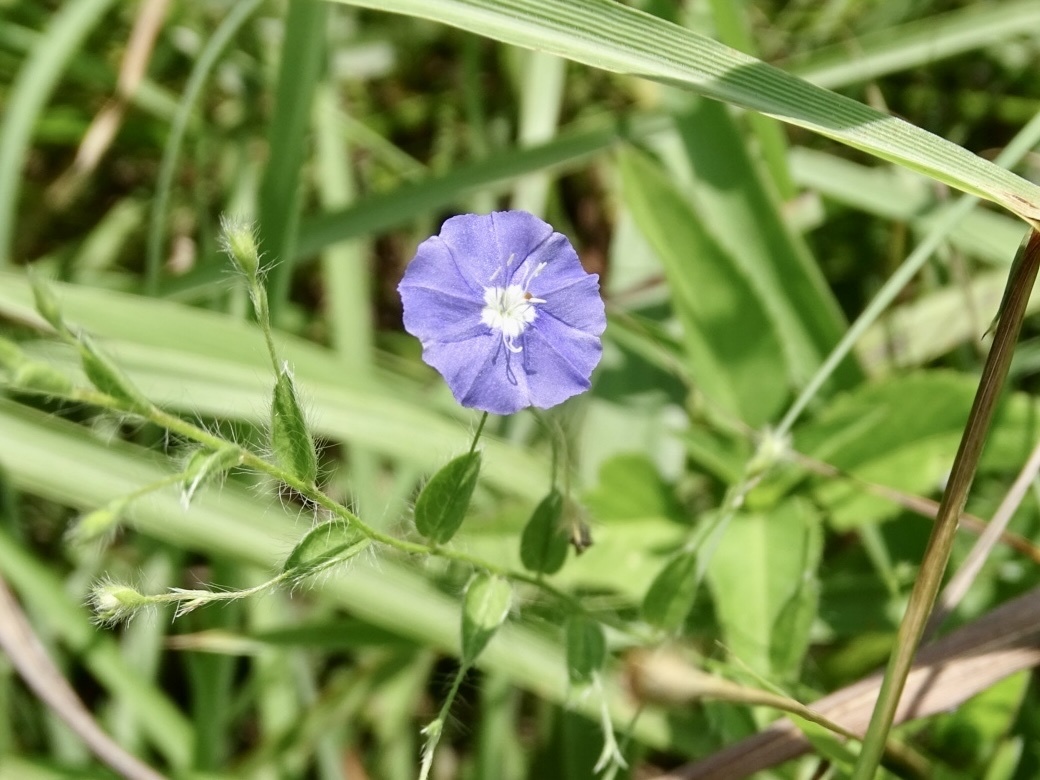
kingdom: Plantae
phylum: Tracheophyta
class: Magnoliopsida
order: Solanales
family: Convolvulaceae
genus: Evolvulus
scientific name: Evolvulus alsinoides
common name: Slender dwarf morning-glory
